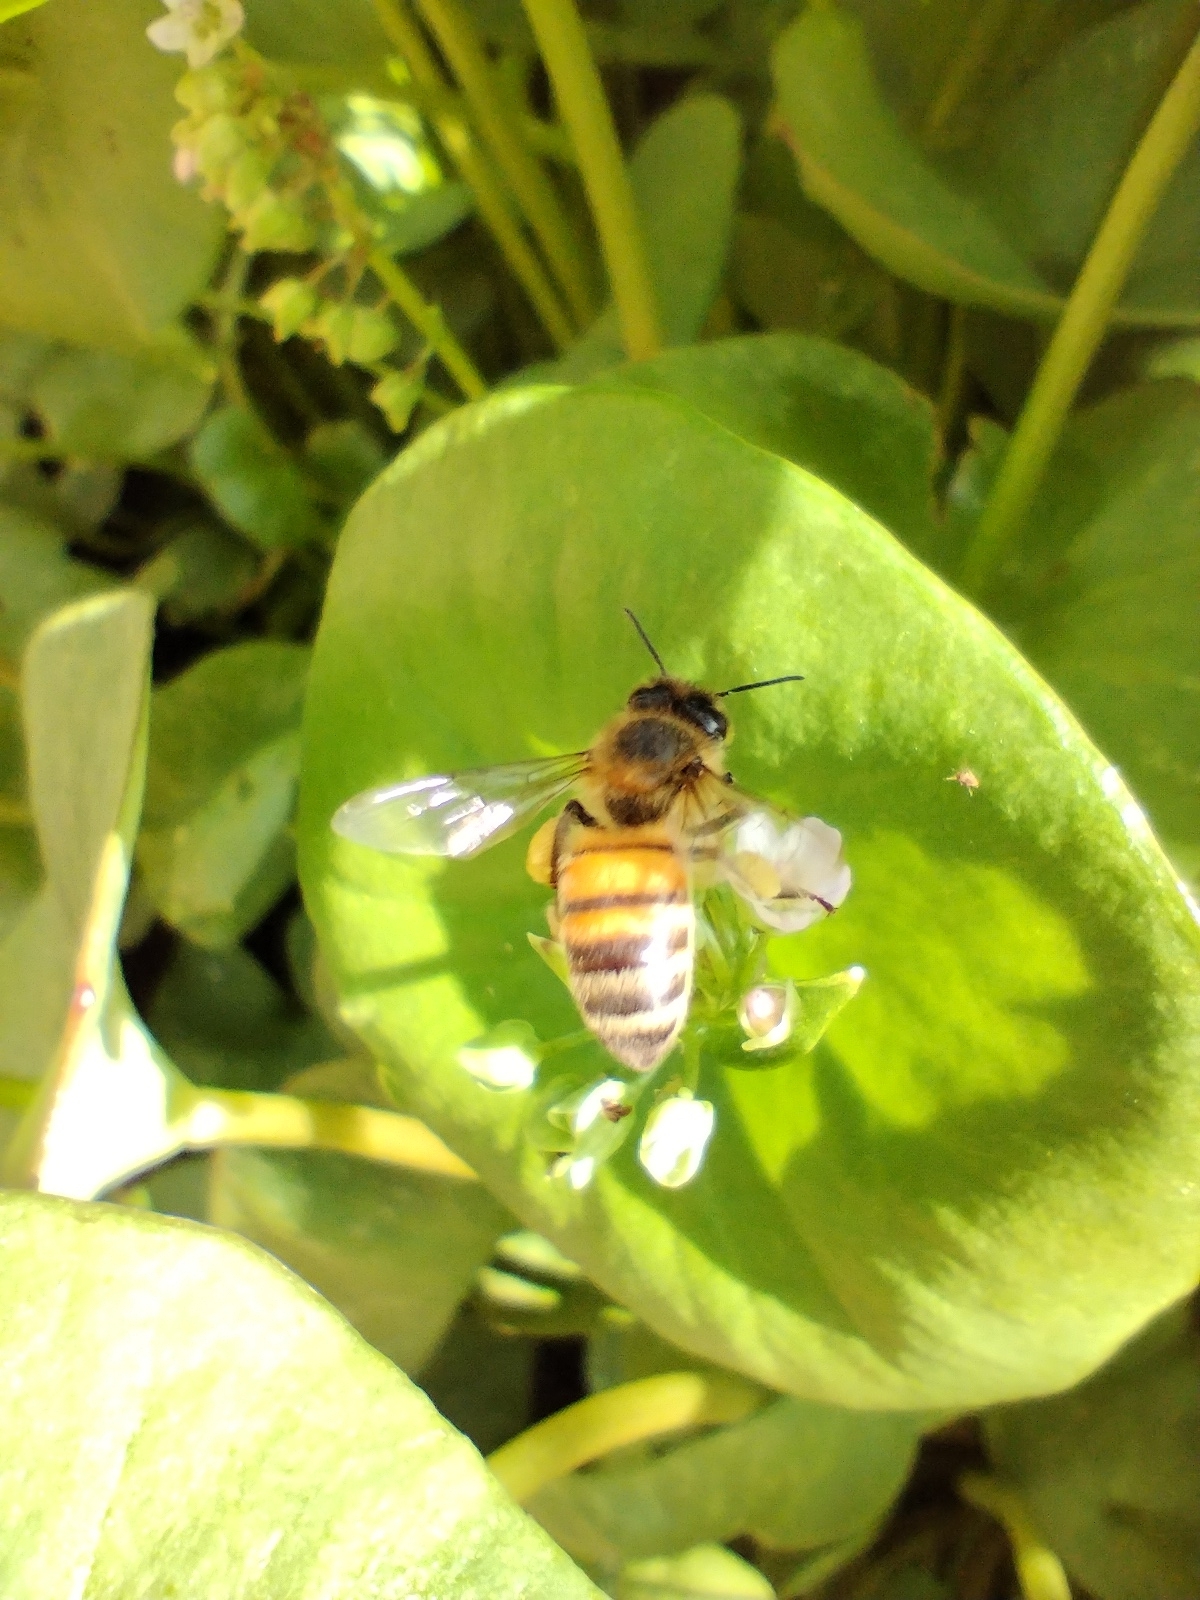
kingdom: Animalia
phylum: Arthropoda
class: Insecta
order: Hymenoptera
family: Apidae
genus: Apis
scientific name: Apis mellifera
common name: Honey bee
